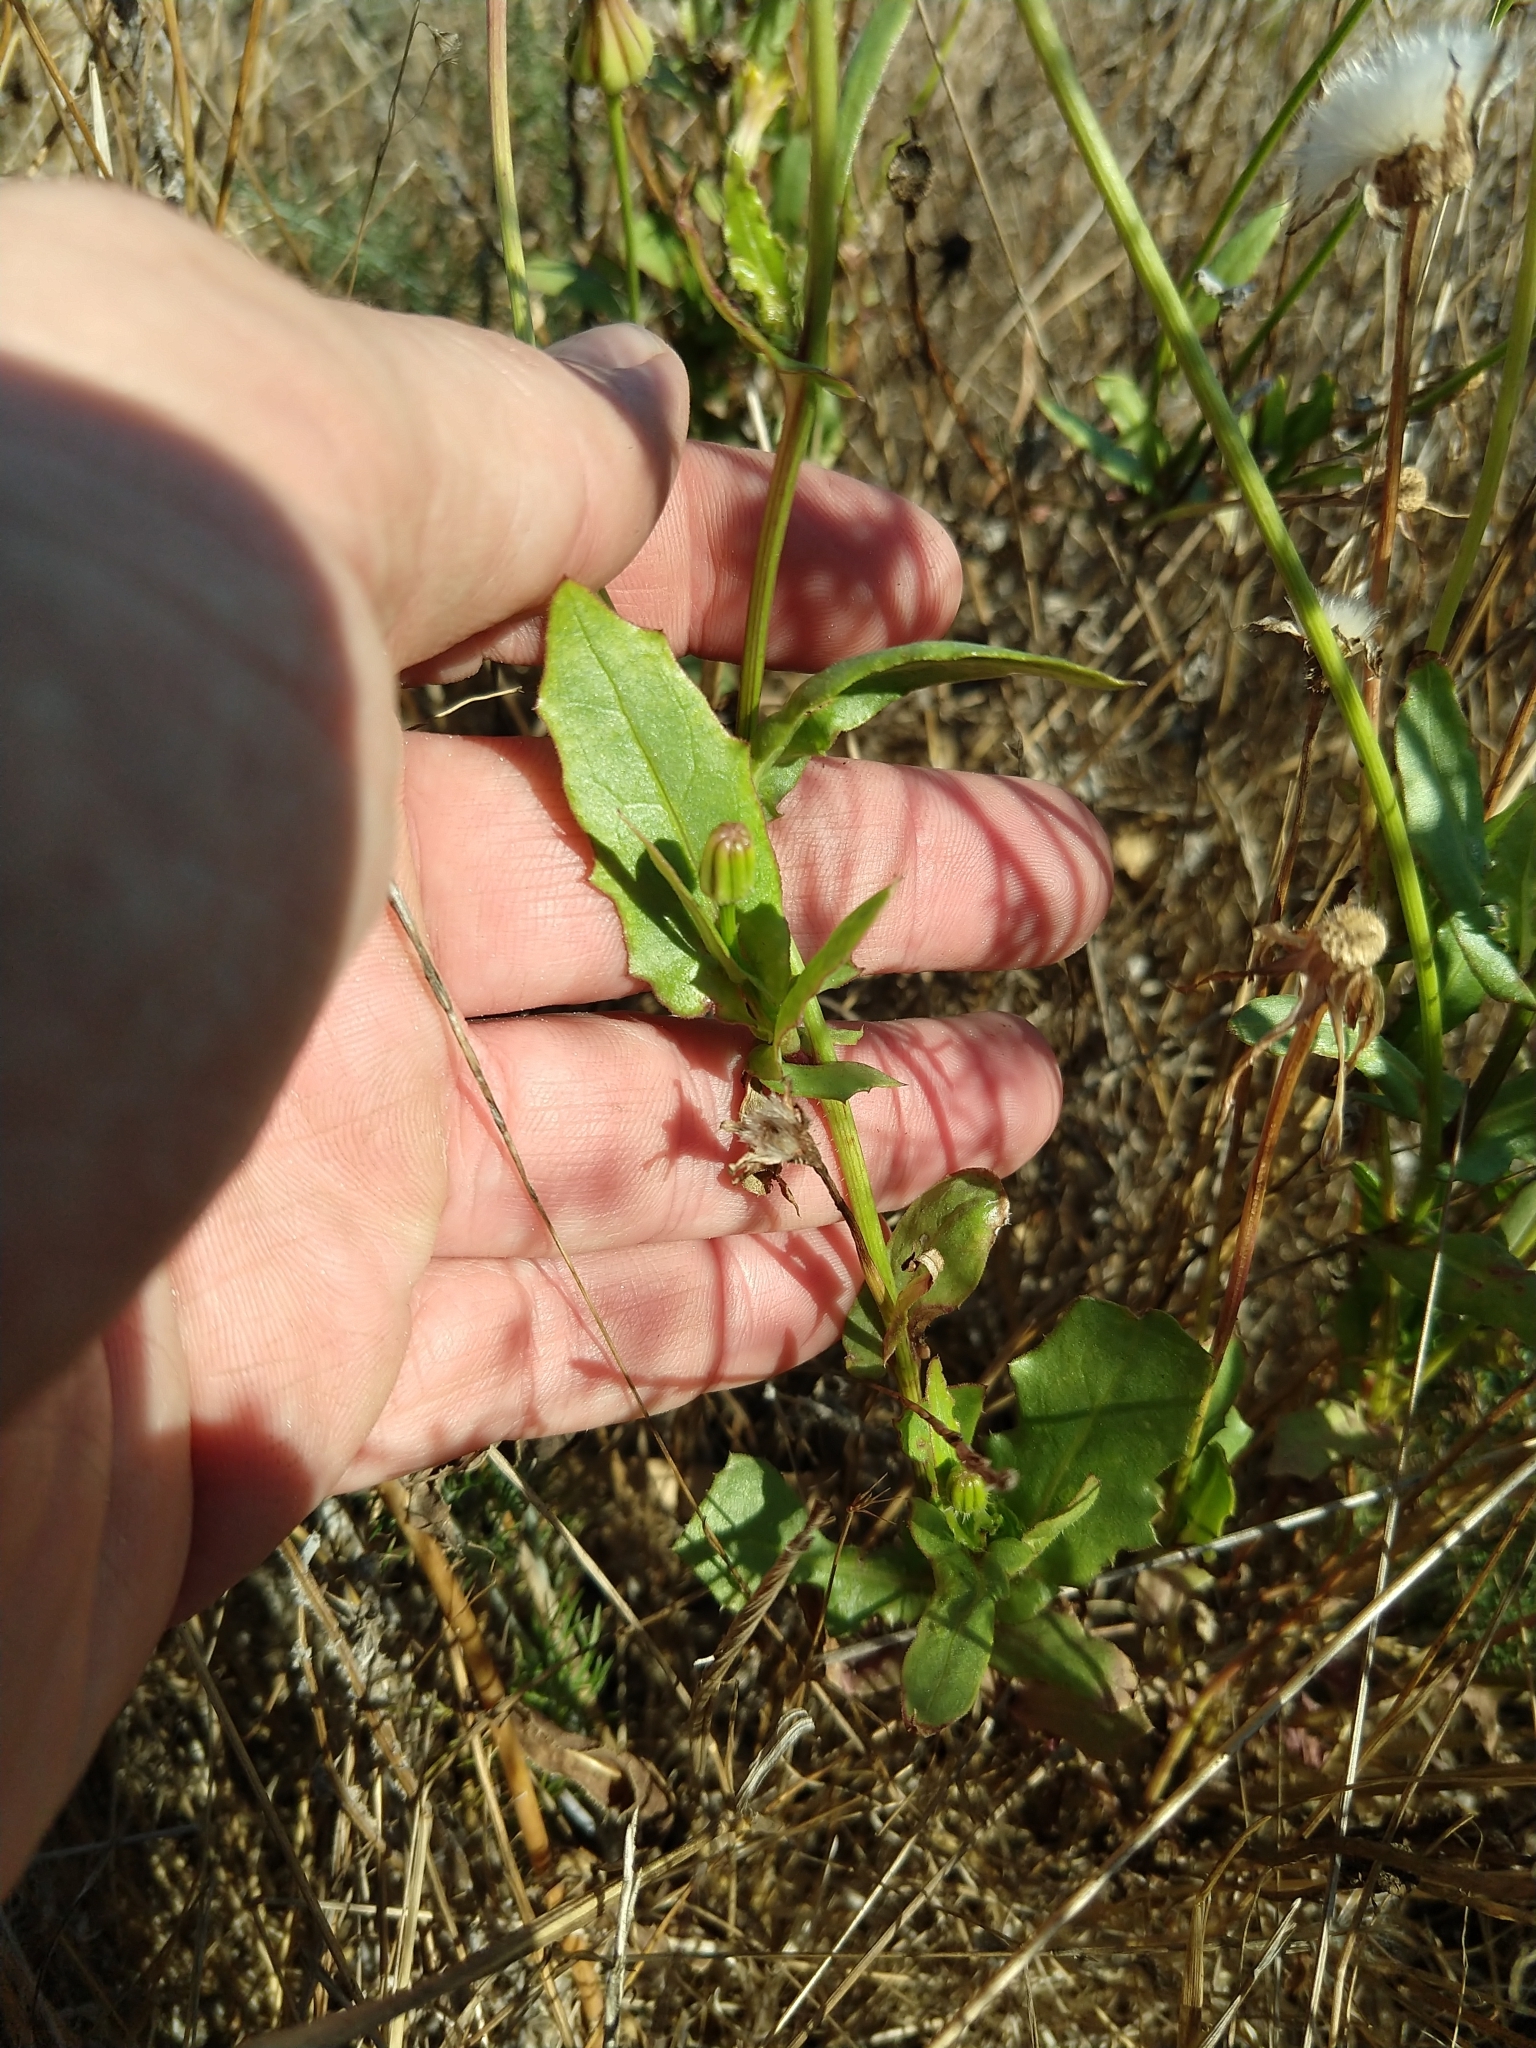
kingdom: Plantae
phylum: Tracheophyta
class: Magnoliopsida
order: Asterales
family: Asteraceae
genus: Urospermum
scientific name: Urospermum picroides
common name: False hawkbit
